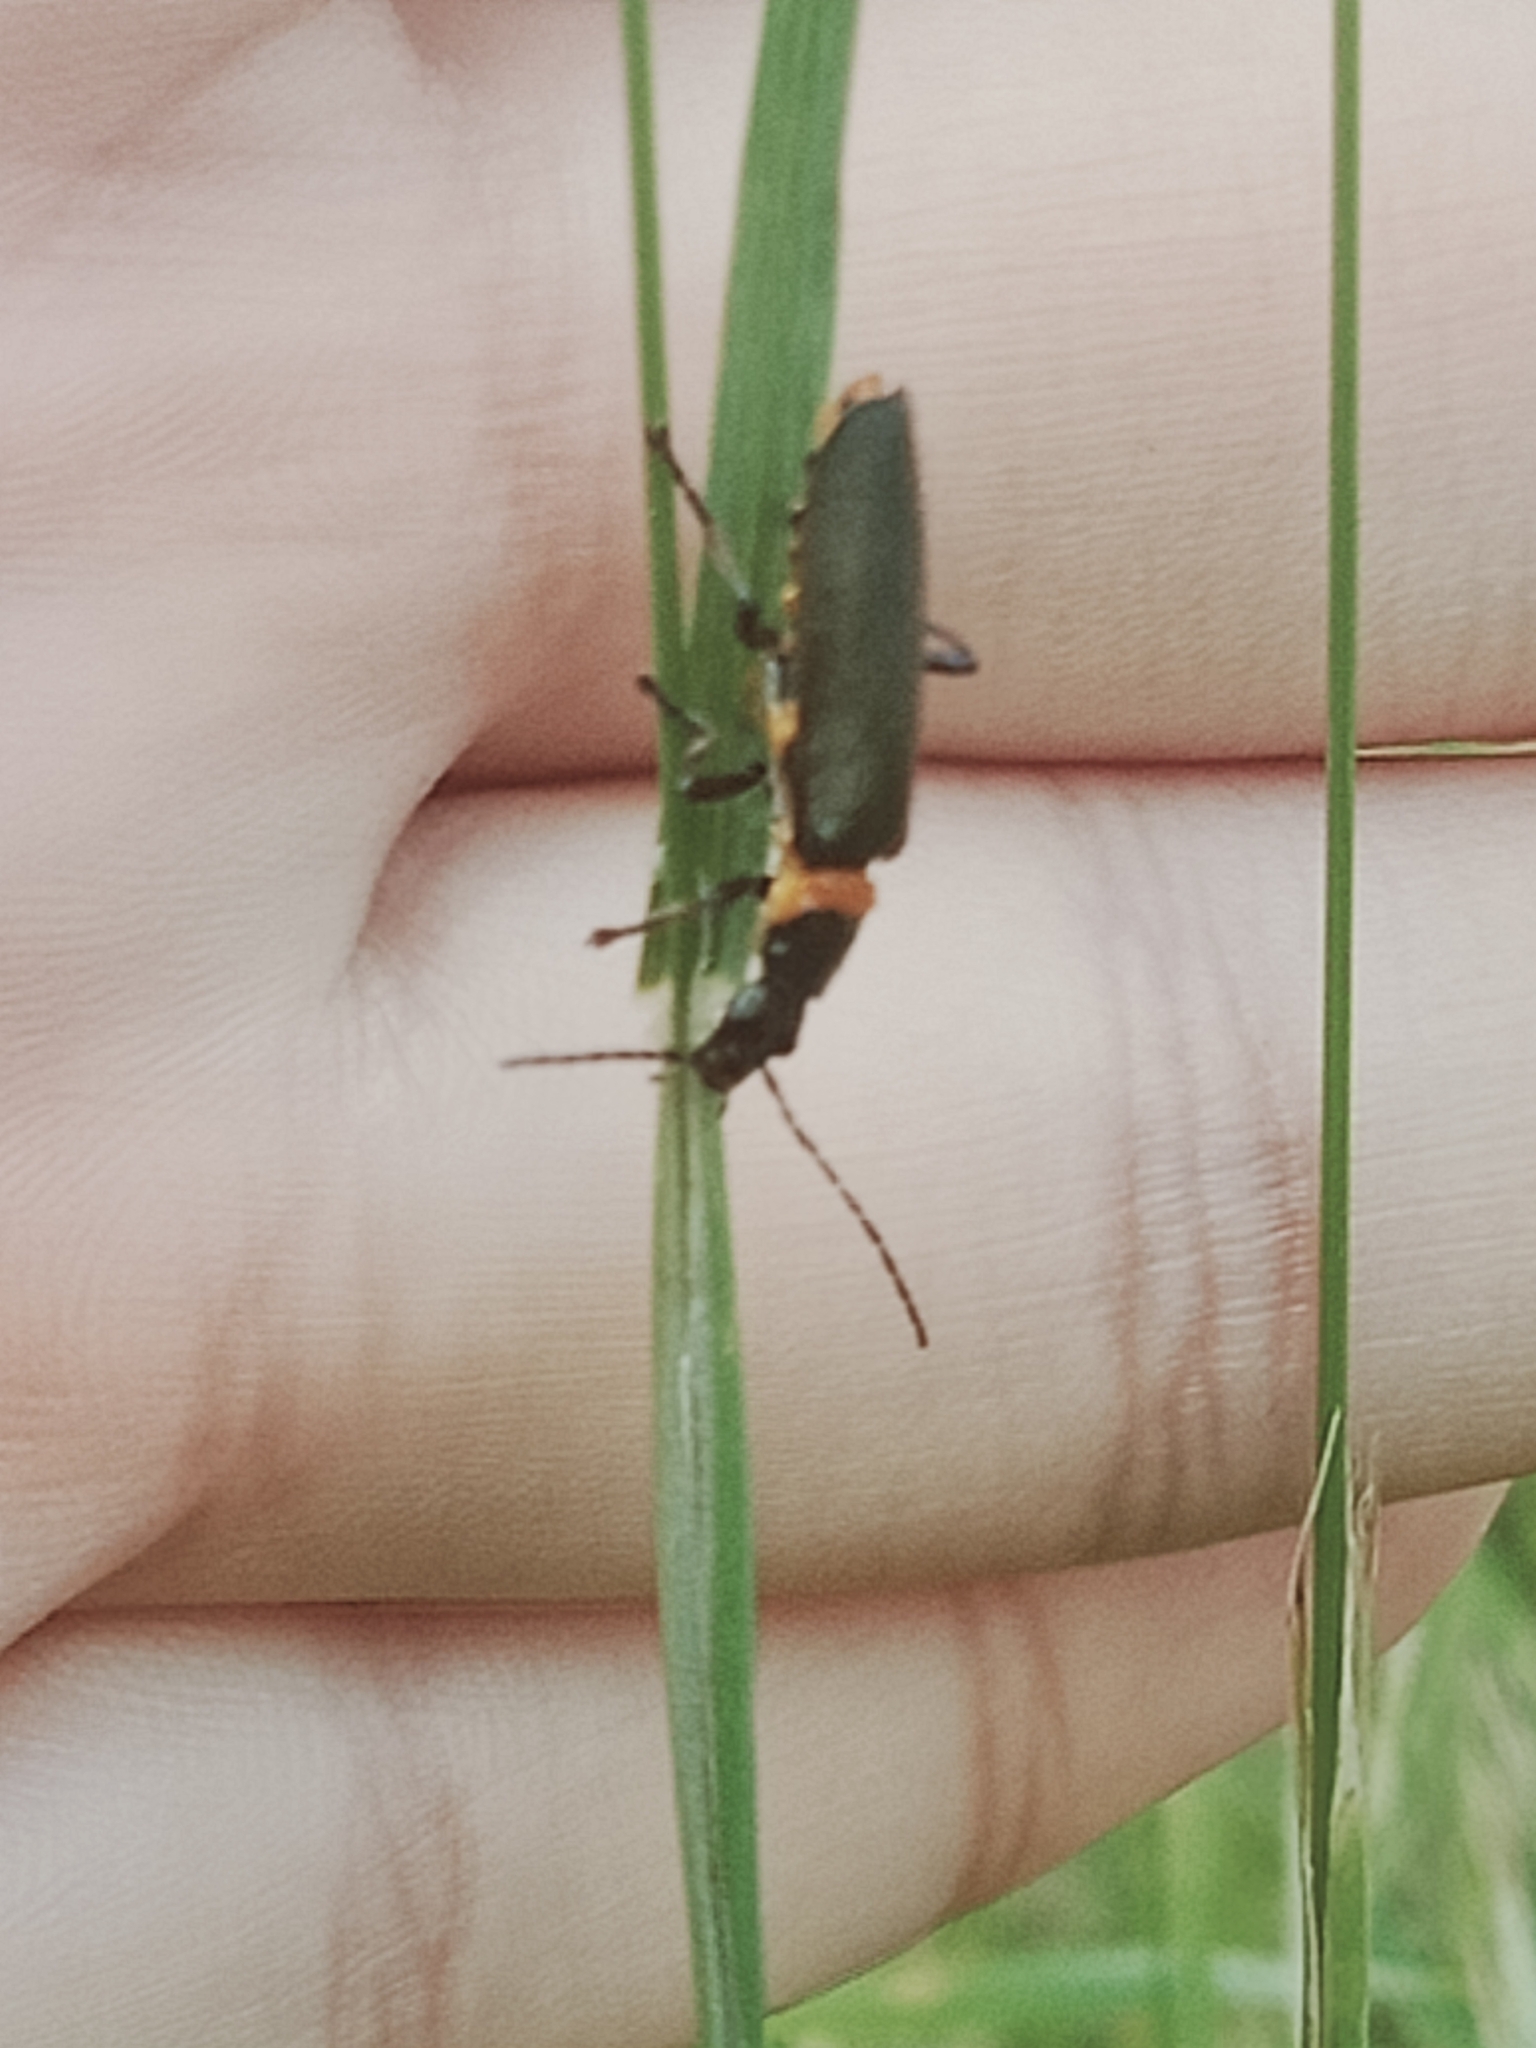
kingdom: Animalia
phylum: Arthropoda
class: Insecta
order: Coleoptera
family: Cantharidae
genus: Chauliognathus
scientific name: Chauliognathus
